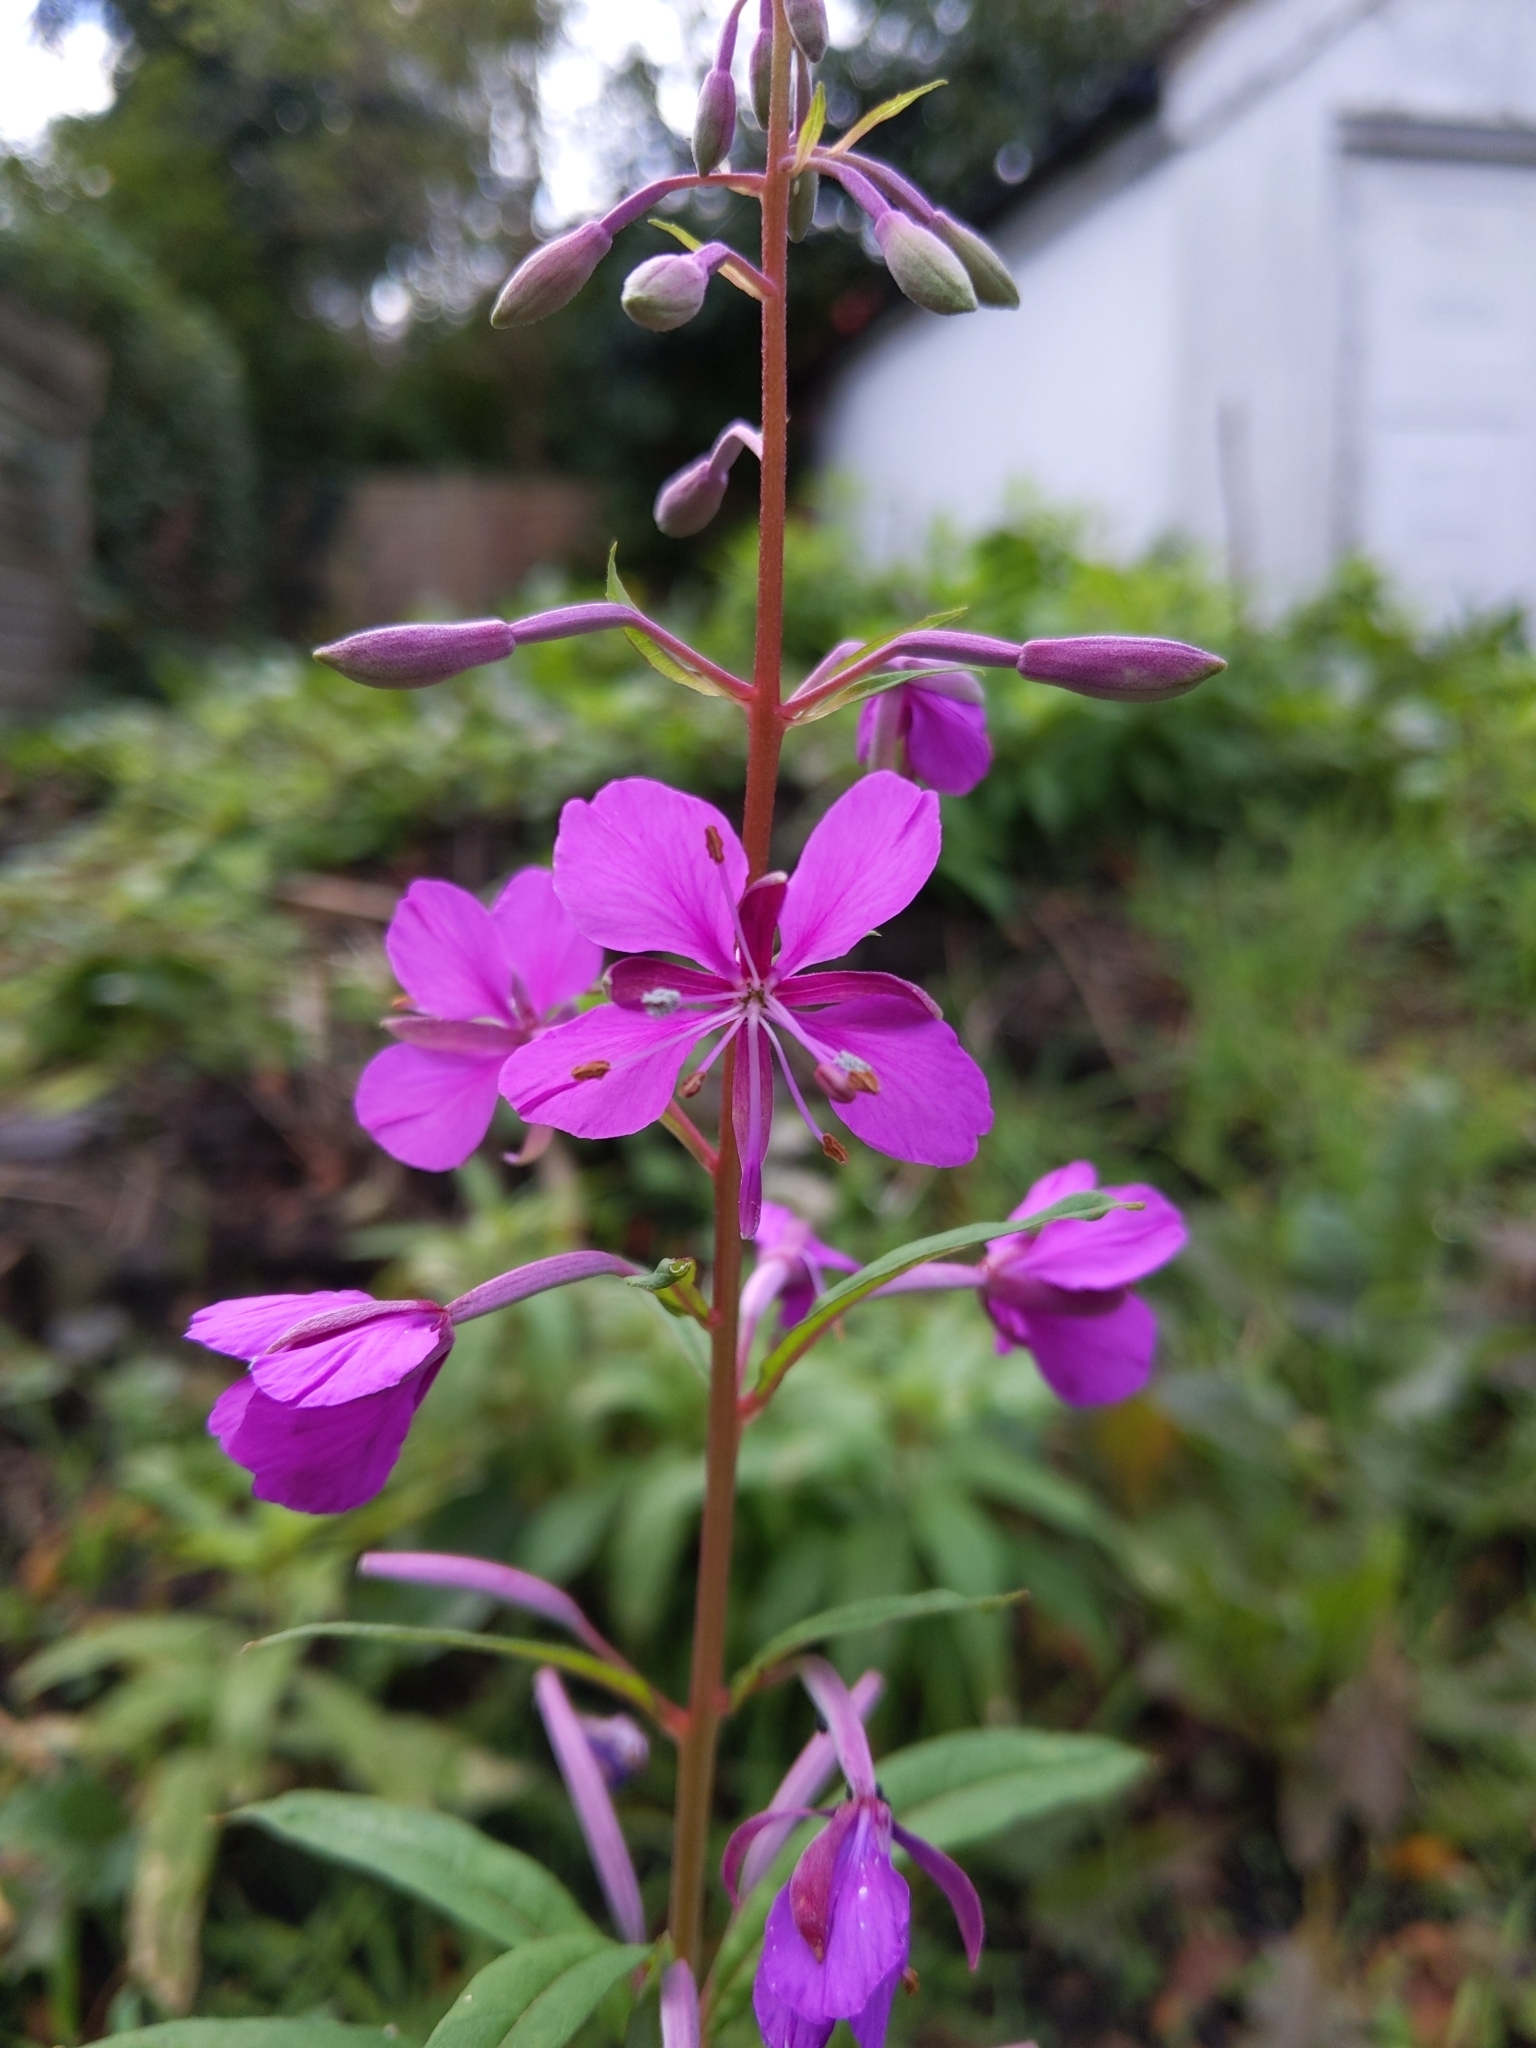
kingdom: Plantae
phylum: Tracheophyta
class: Magnoliopsida
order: Myrtales
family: Onagraceae
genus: Chamaenerion
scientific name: Chamaenerion angustifolium
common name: Fireweed
